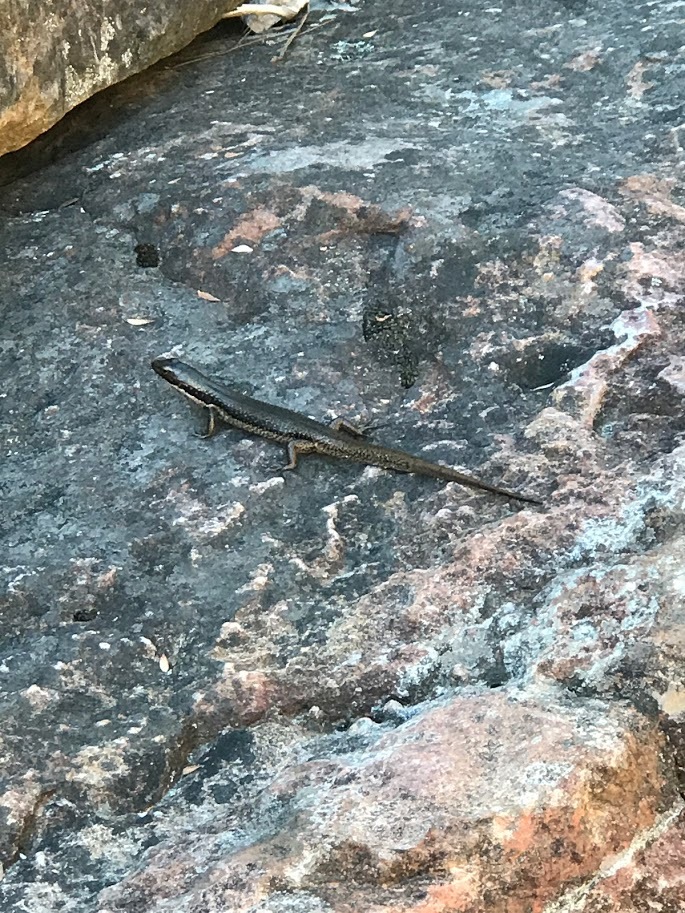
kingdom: Animalia
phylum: Chordata
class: Squamata
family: Scincidae
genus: Eulamprus
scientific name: Eulamprus tympanum
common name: Cool-temperate water-skink
